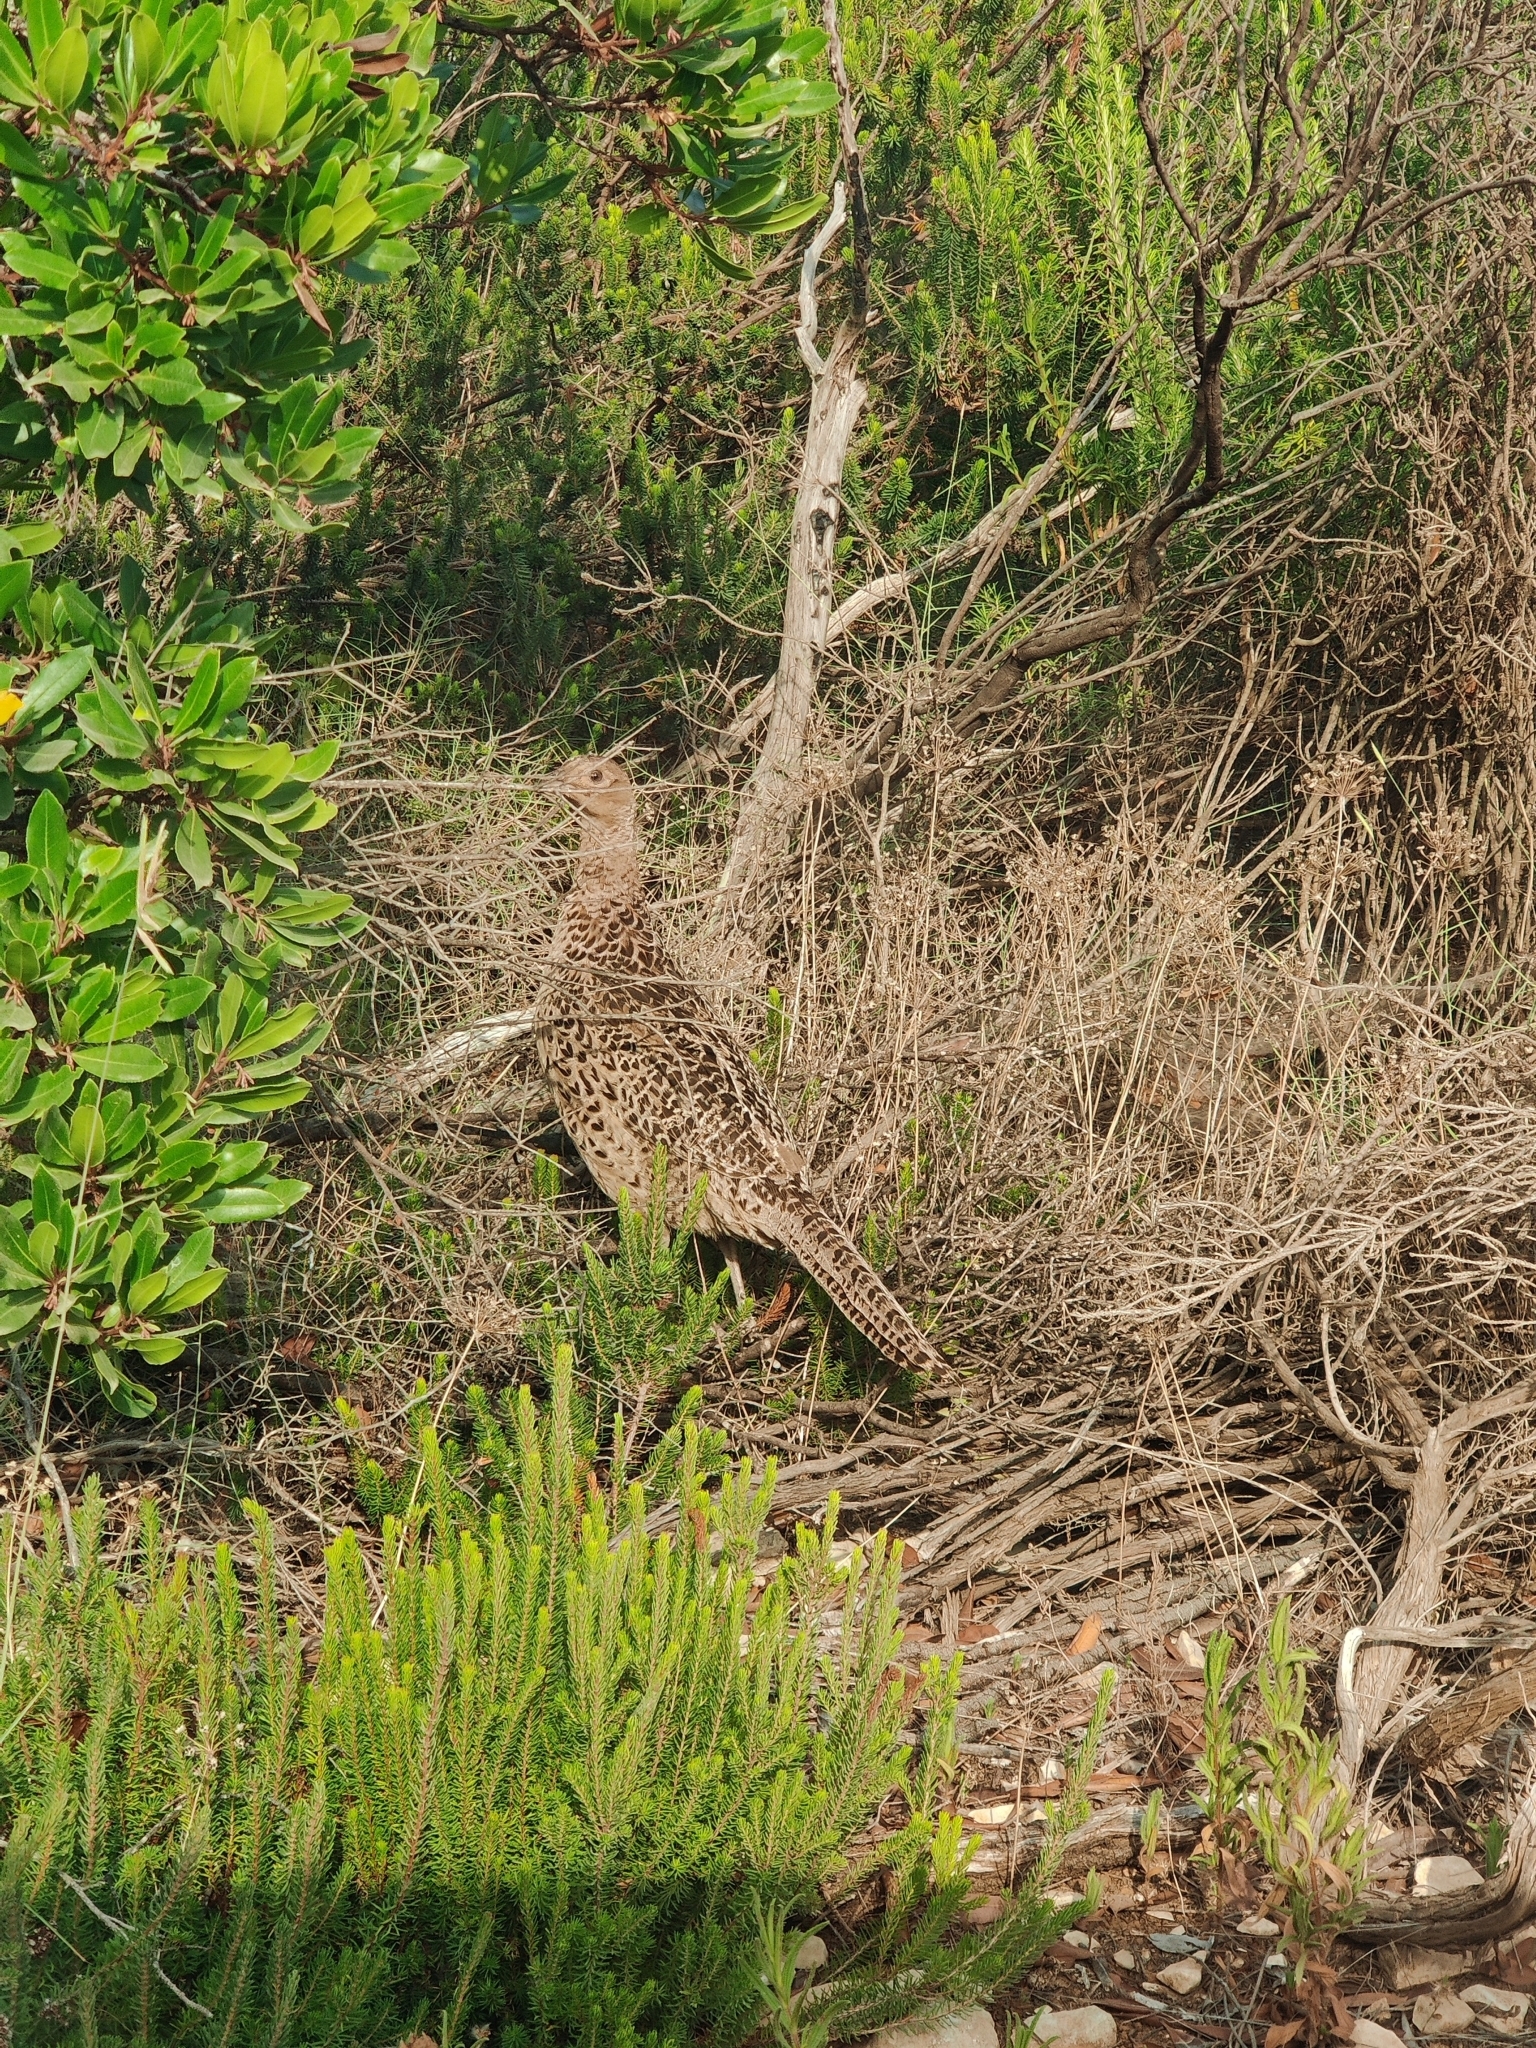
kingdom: Animalia
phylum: Chordata
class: Aves
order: Galliformes
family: Phasianidae
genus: Phasianus
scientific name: Phasianus colchicus
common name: Common pheasant
